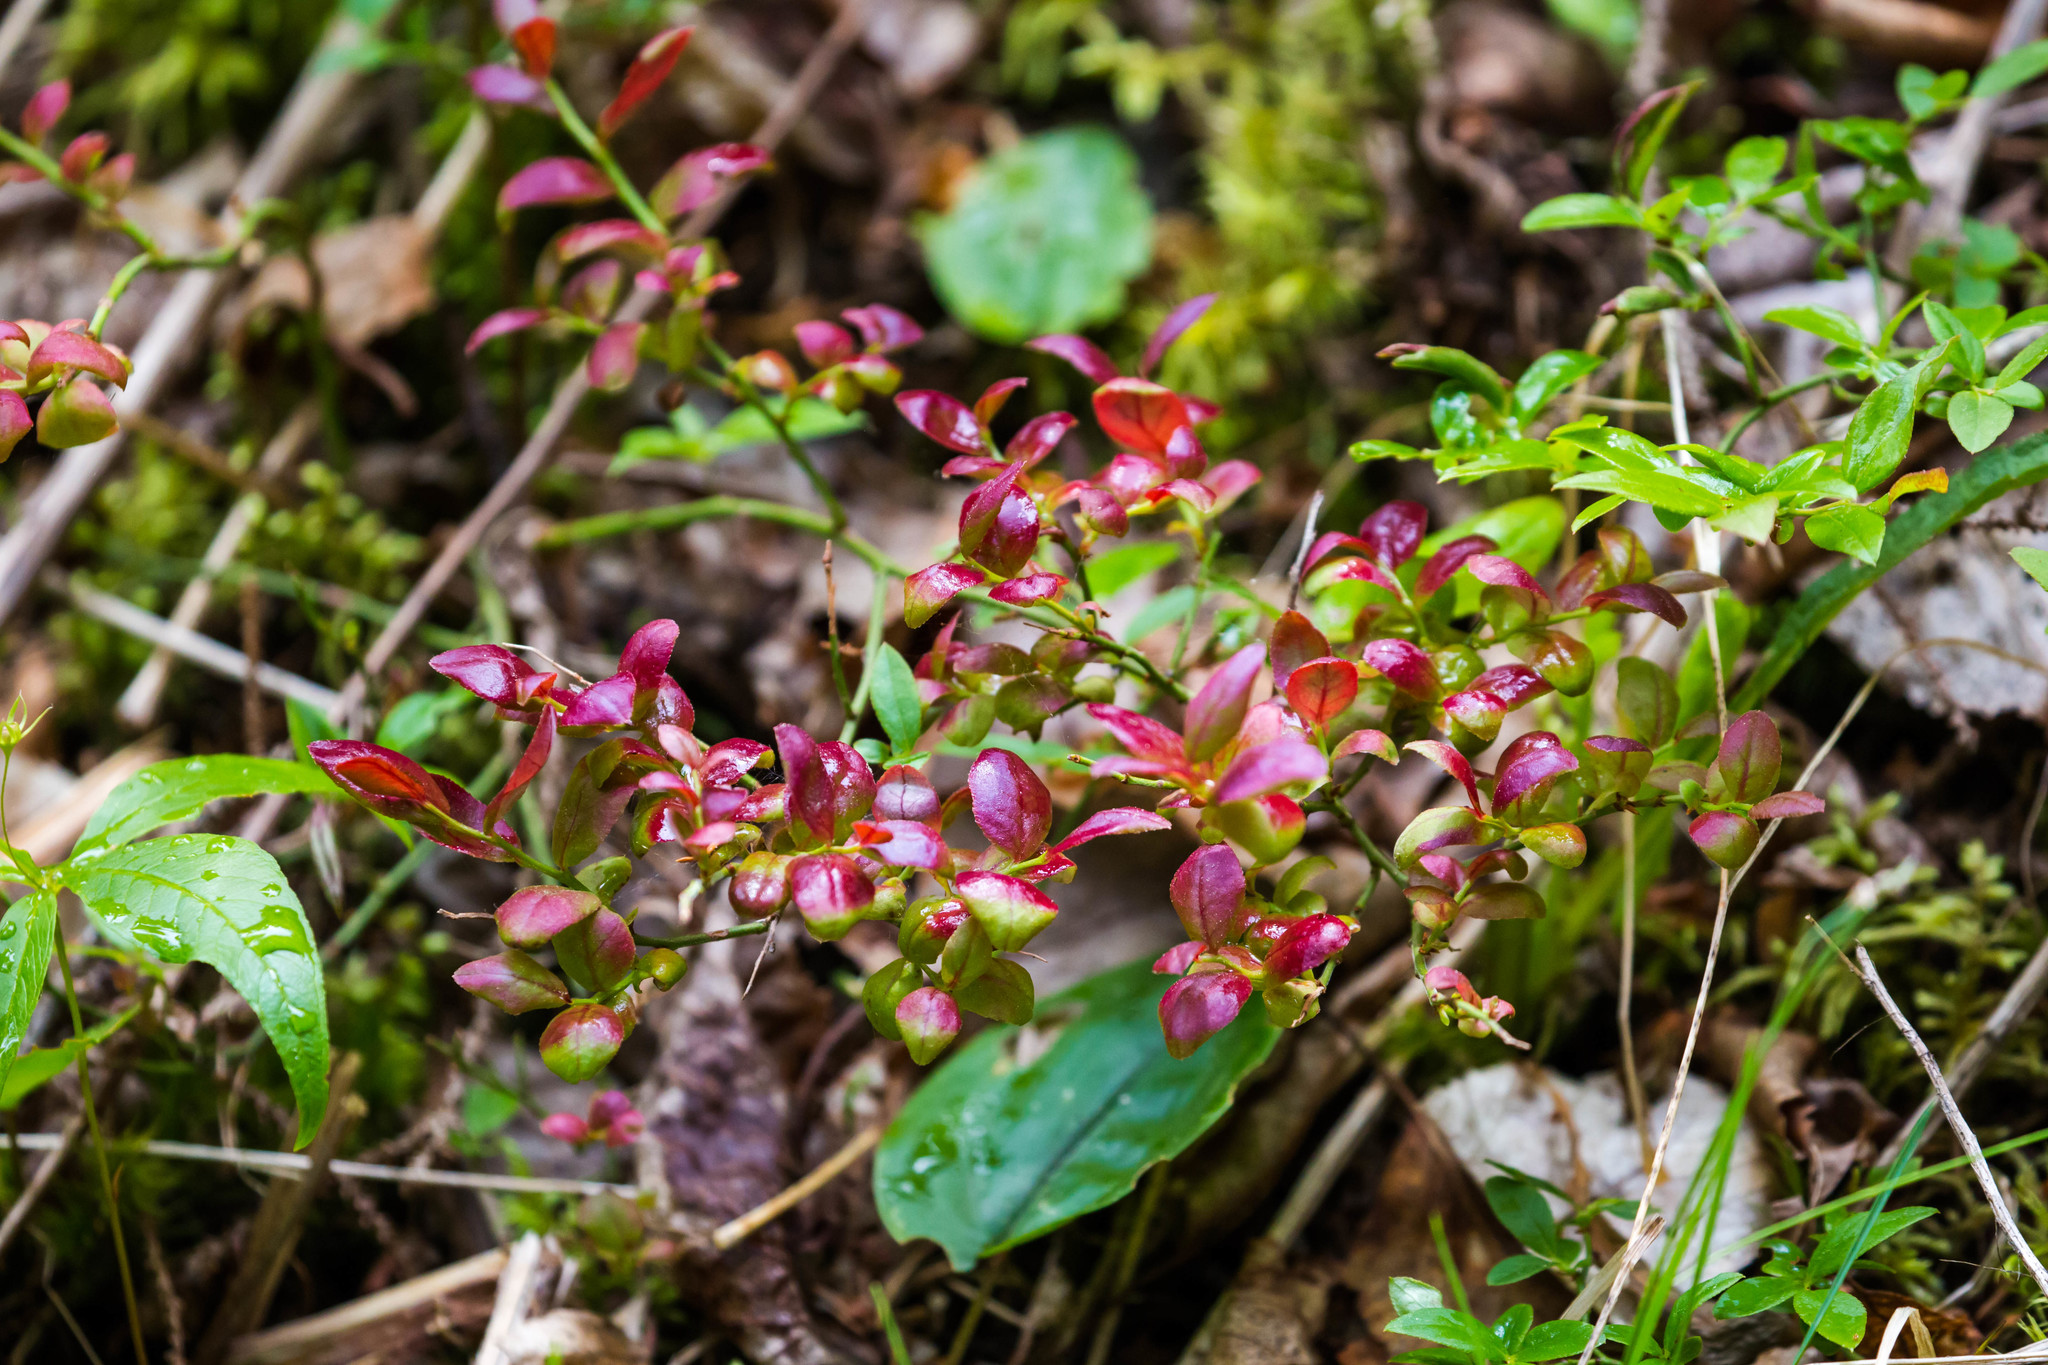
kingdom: Plantae
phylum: Tracheophyta
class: Magnoliopsida
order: Ericales
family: Ericaceae
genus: Vaccinium
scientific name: Vaccinium angustifolium
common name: Early lowbush blueberry
